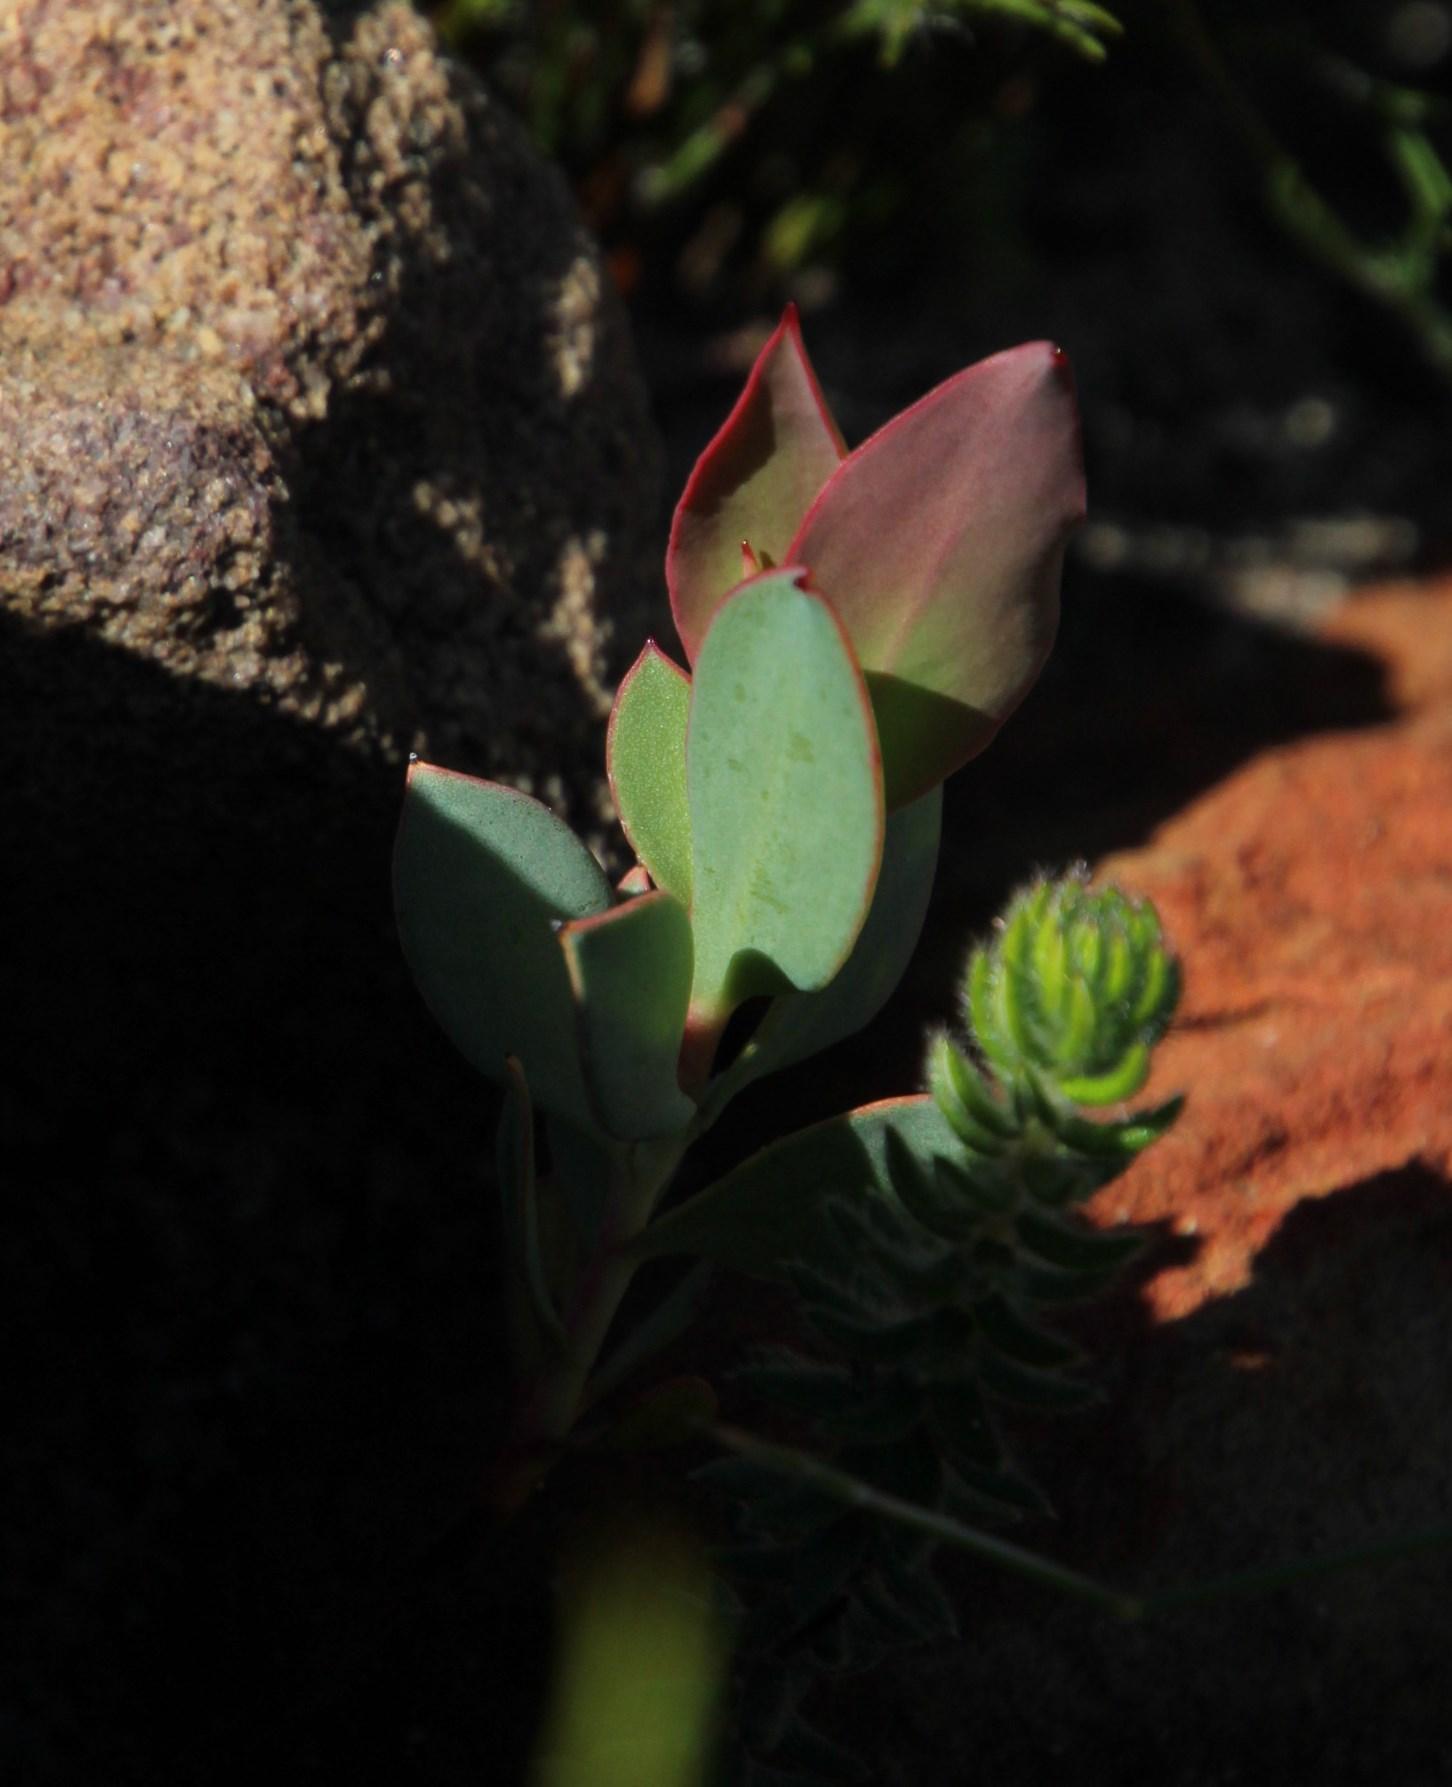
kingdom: Plantae
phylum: Tracheophyta
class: Magnoliopsida
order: Proteales
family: Proteaceae
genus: Protea
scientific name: Protea amplexicaulis
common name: Clasping-leaf sugarbush
